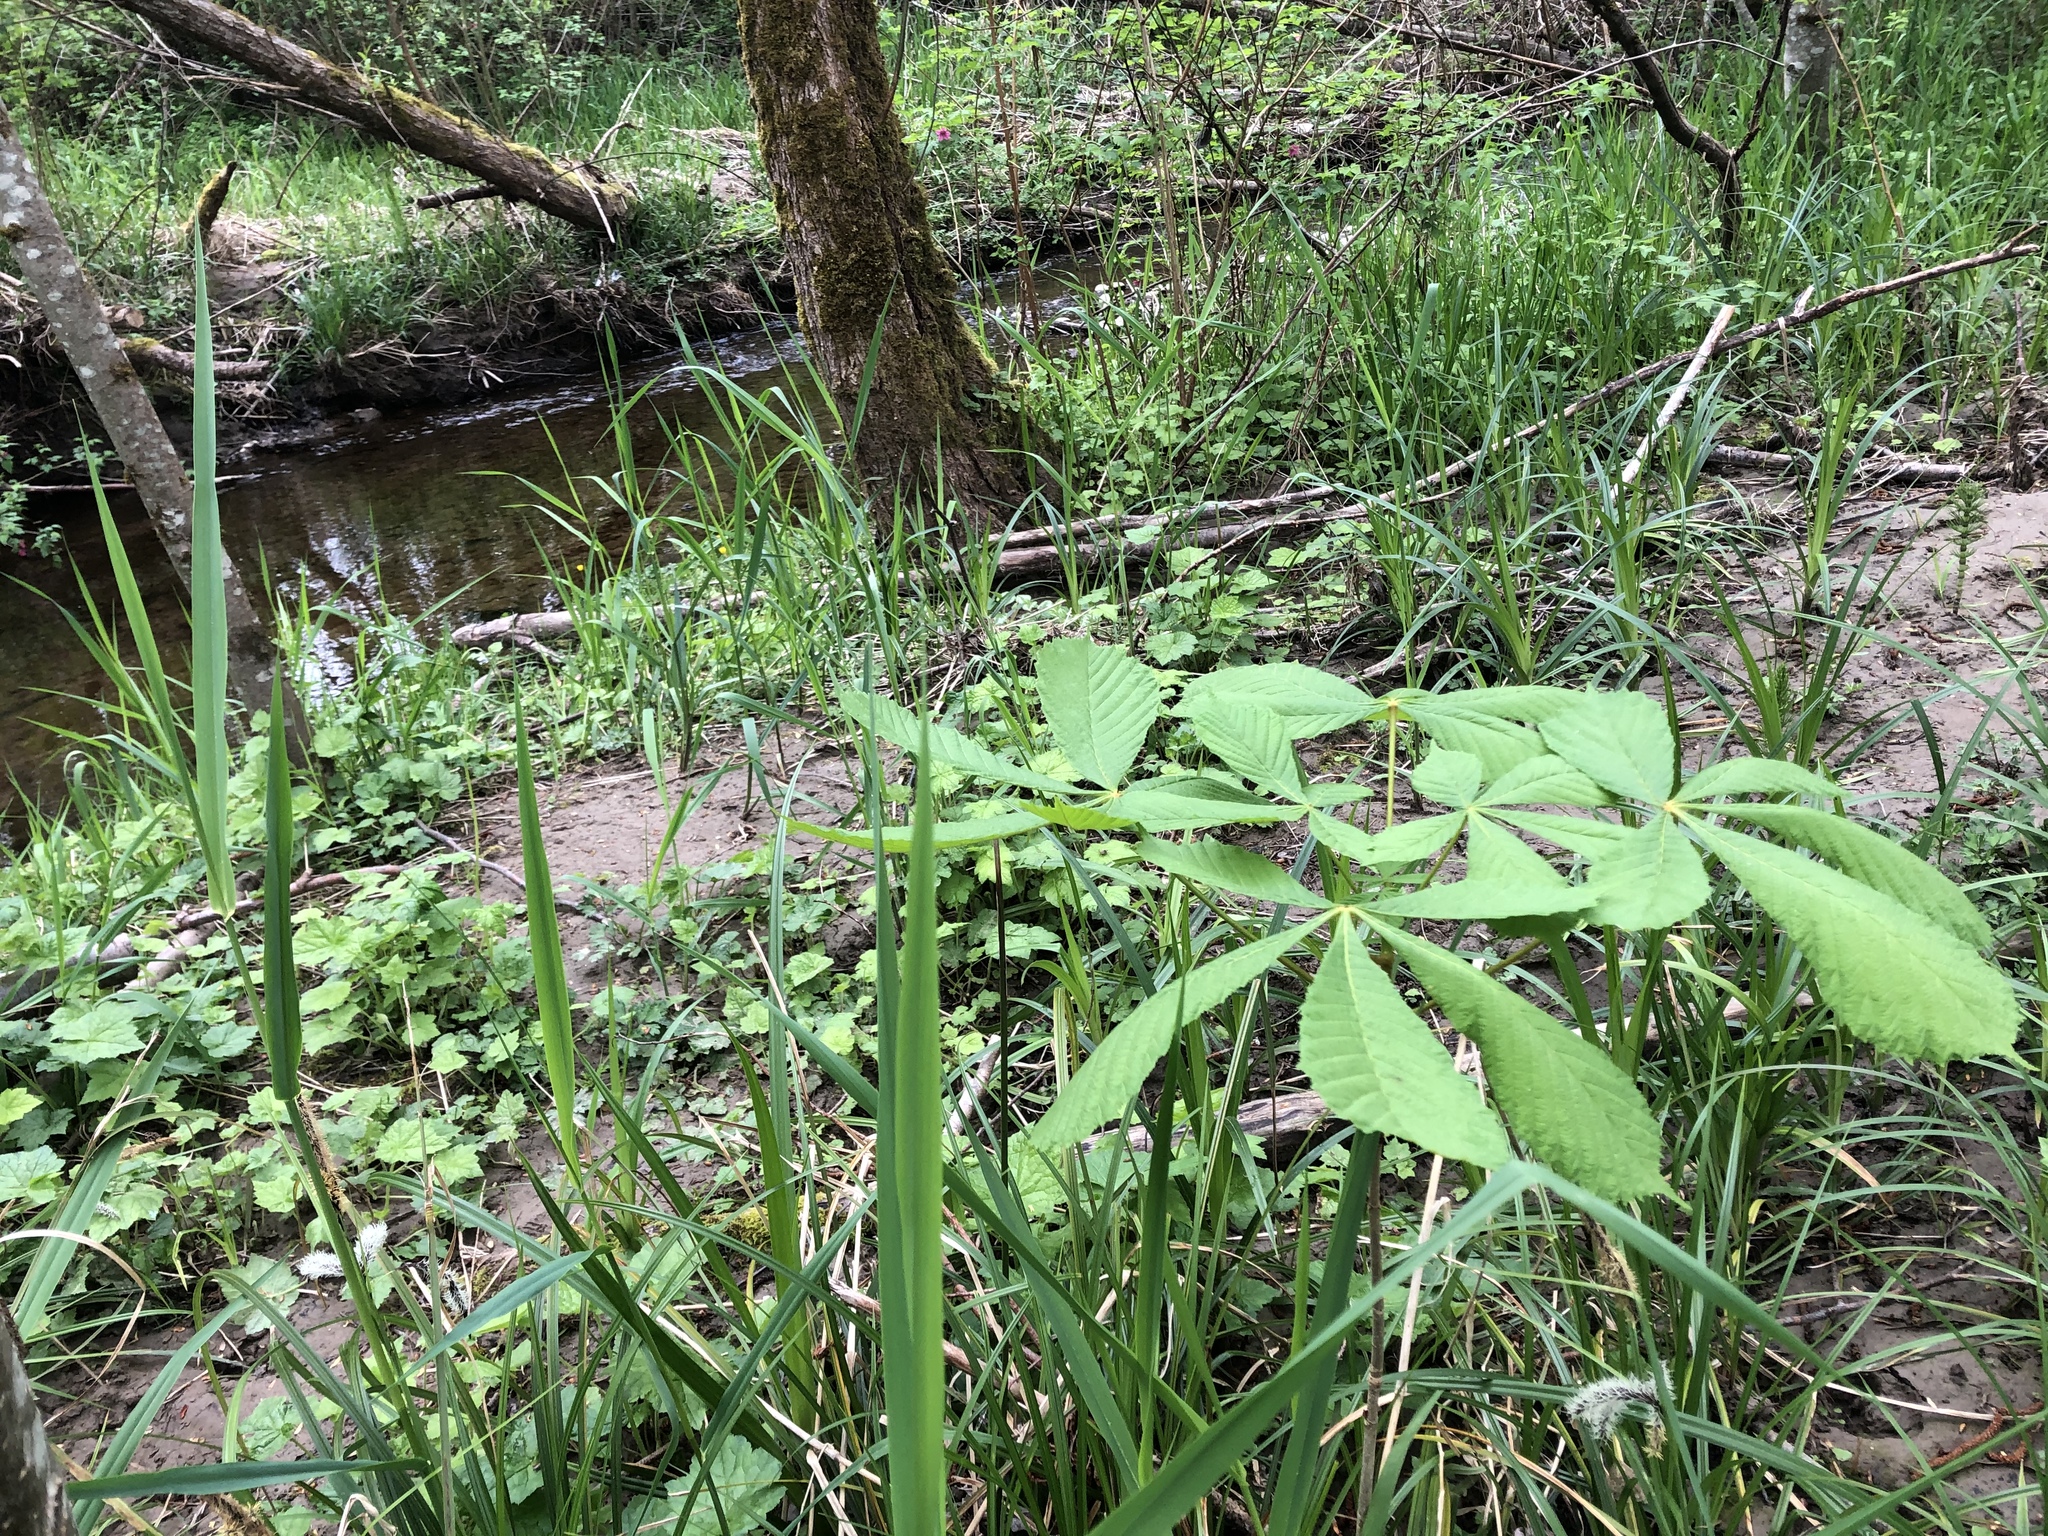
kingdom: Plantae
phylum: Tracheophyta
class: Magnoliopsida
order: Sapindales
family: Sapindaceae
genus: Aesculus
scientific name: Aesculus hippocastanum
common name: Horse-chestnut
